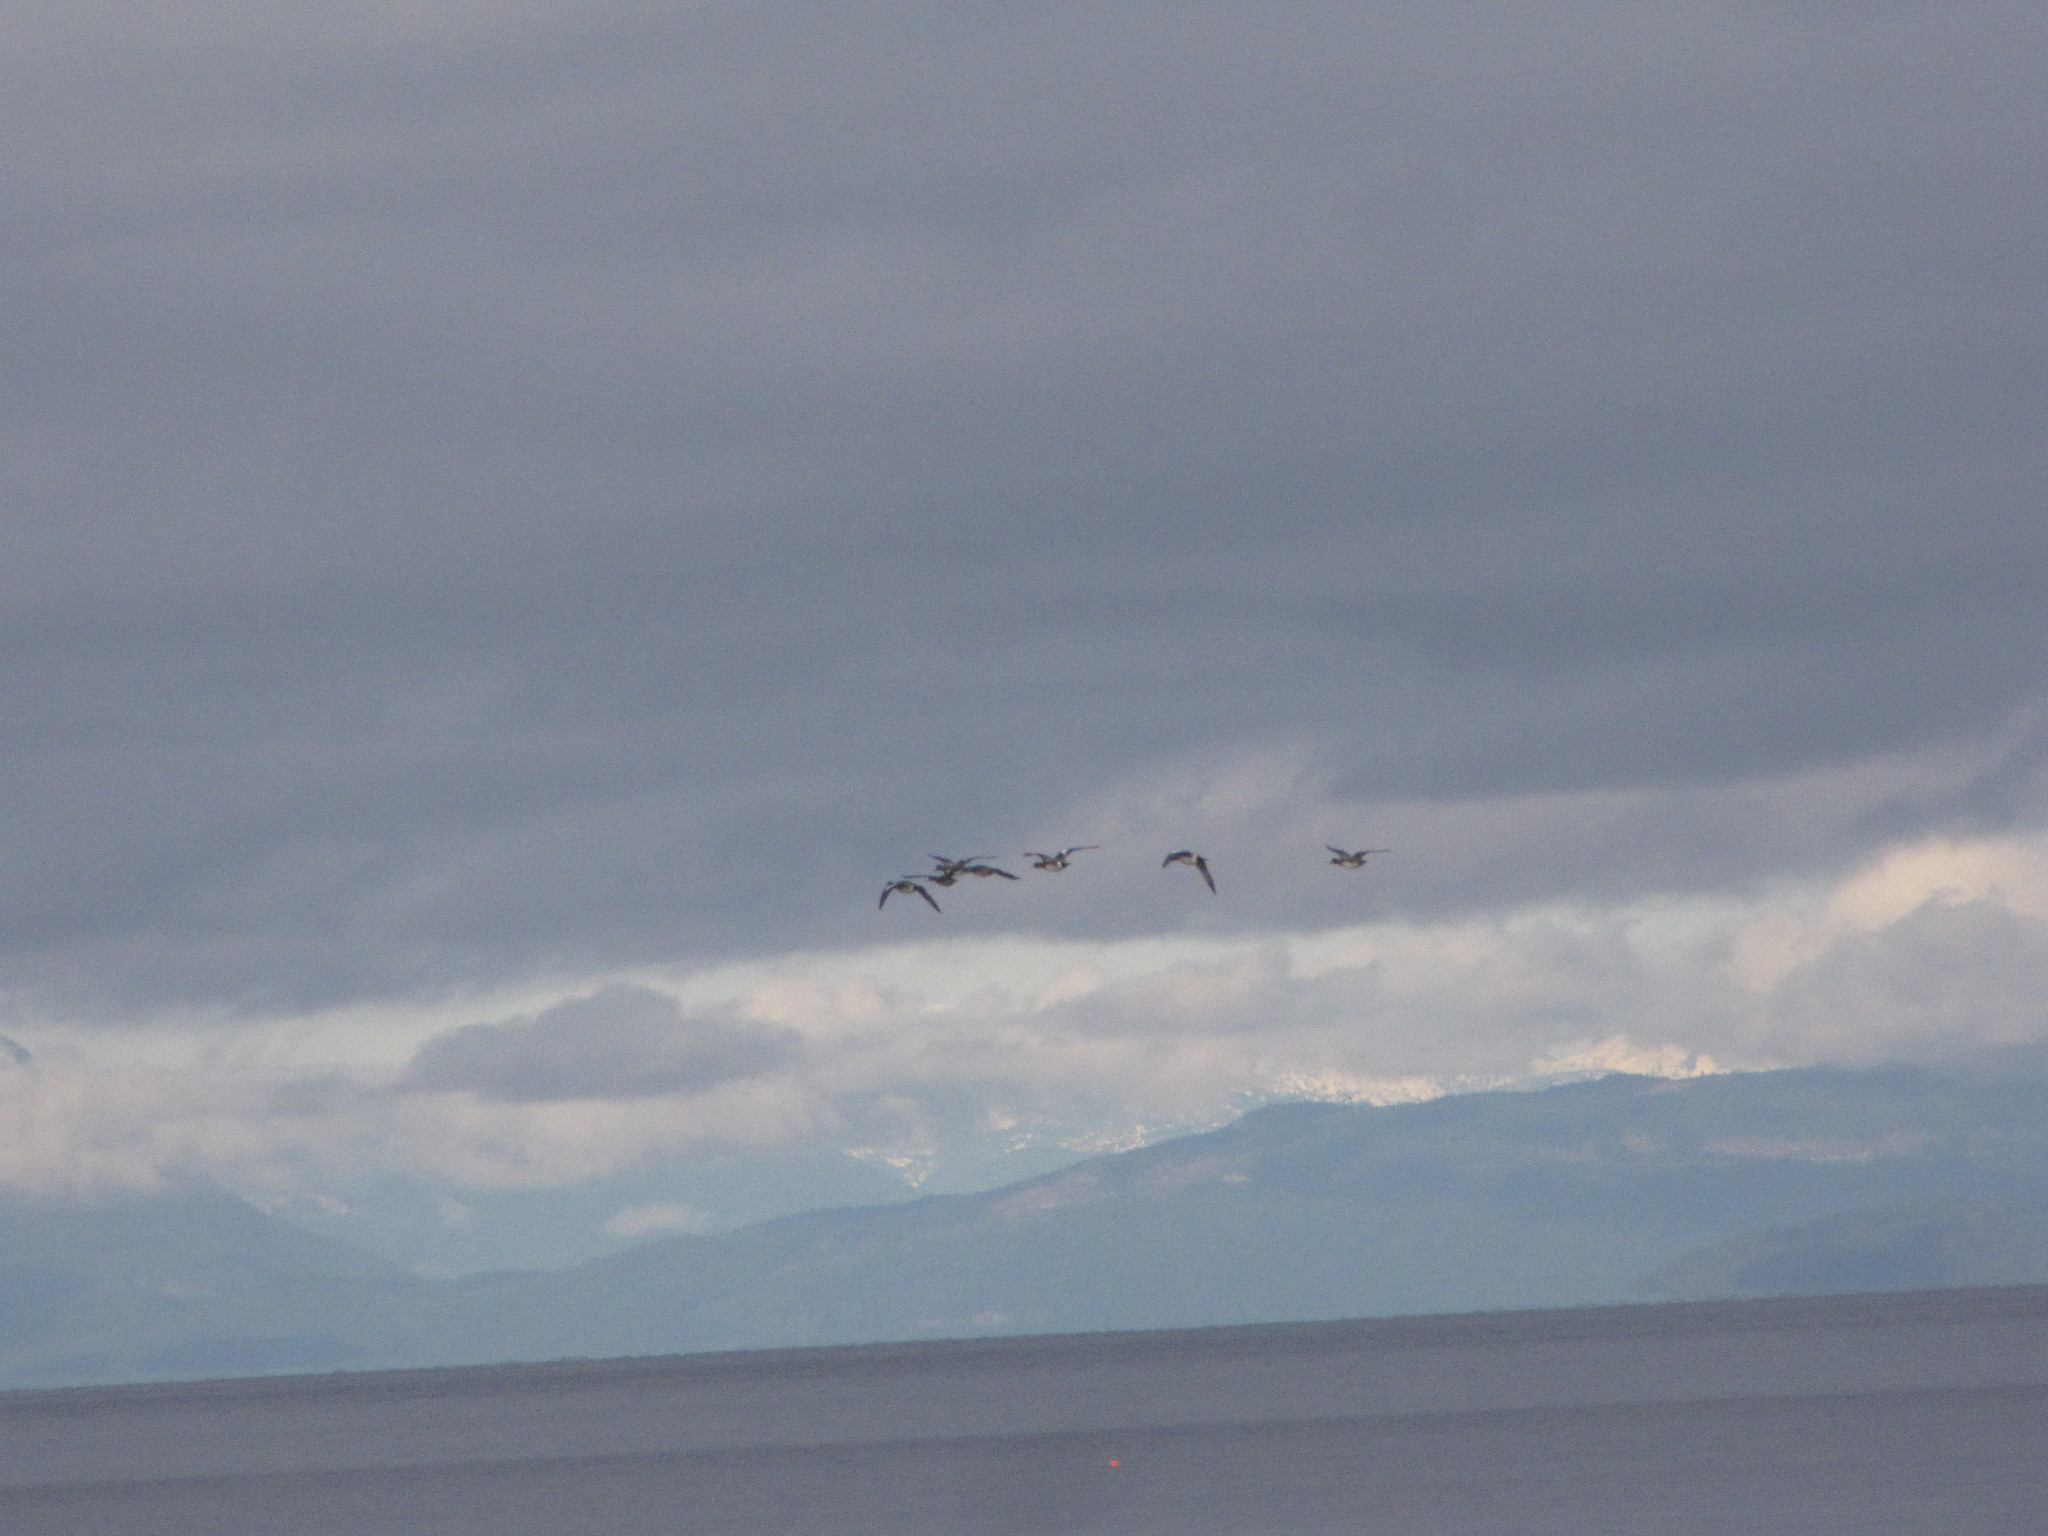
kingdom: Animalia
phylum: Chordata
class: Aves
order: Anseriformes
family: Anatidae
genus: Mareca
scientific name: Mareca americana
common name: American wigeon
